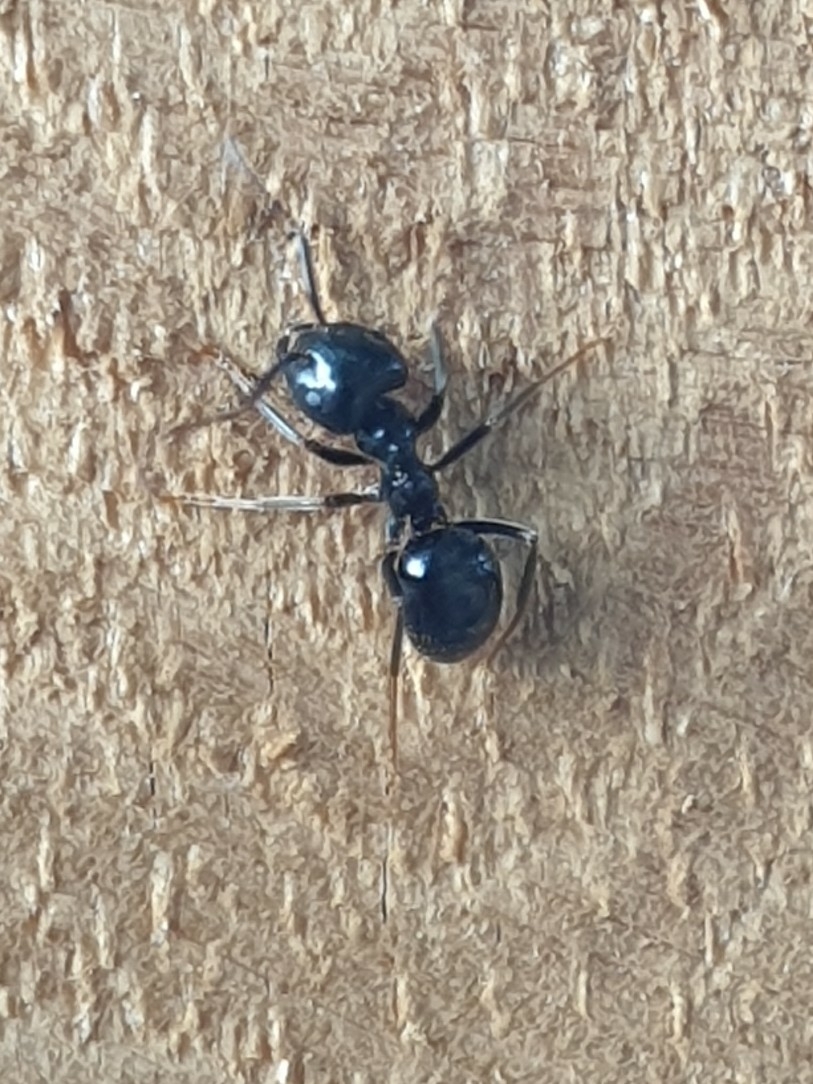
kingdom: Animalia
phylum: Arthropoda
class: Insecta
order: Hymenoptera
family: Formicidae
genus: Lasius
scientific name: Lasius fuliginosus
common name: Jet ant
